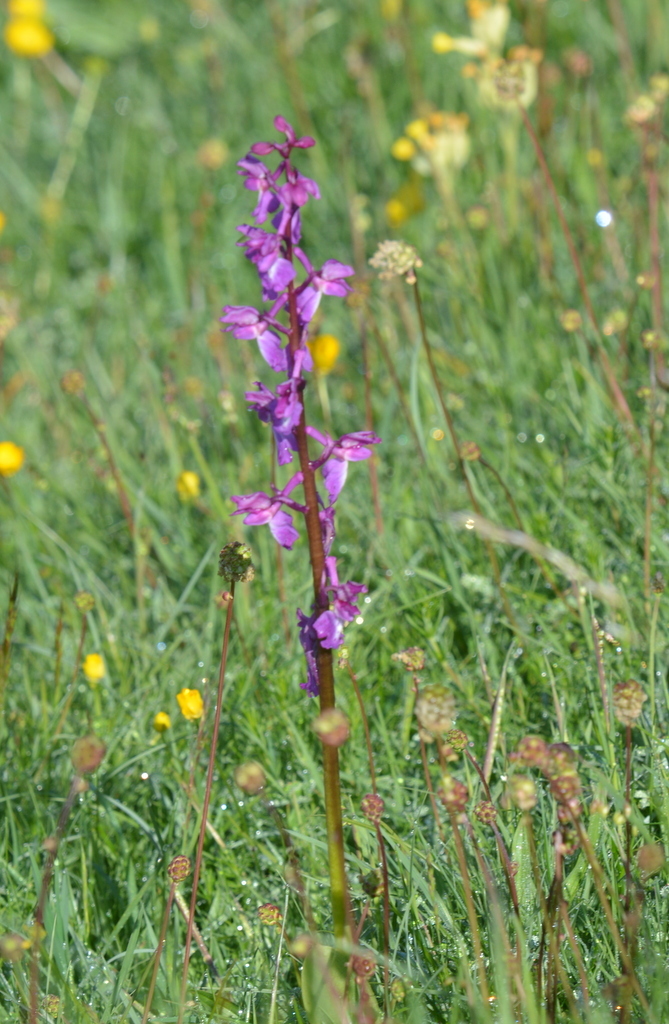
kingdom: Plantae
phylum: Tracheophyta
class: Liliopsida
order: Asparagales
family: Orchidaceae
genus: Orchis
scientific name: Orchis mascula
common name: Early-purple orchid
